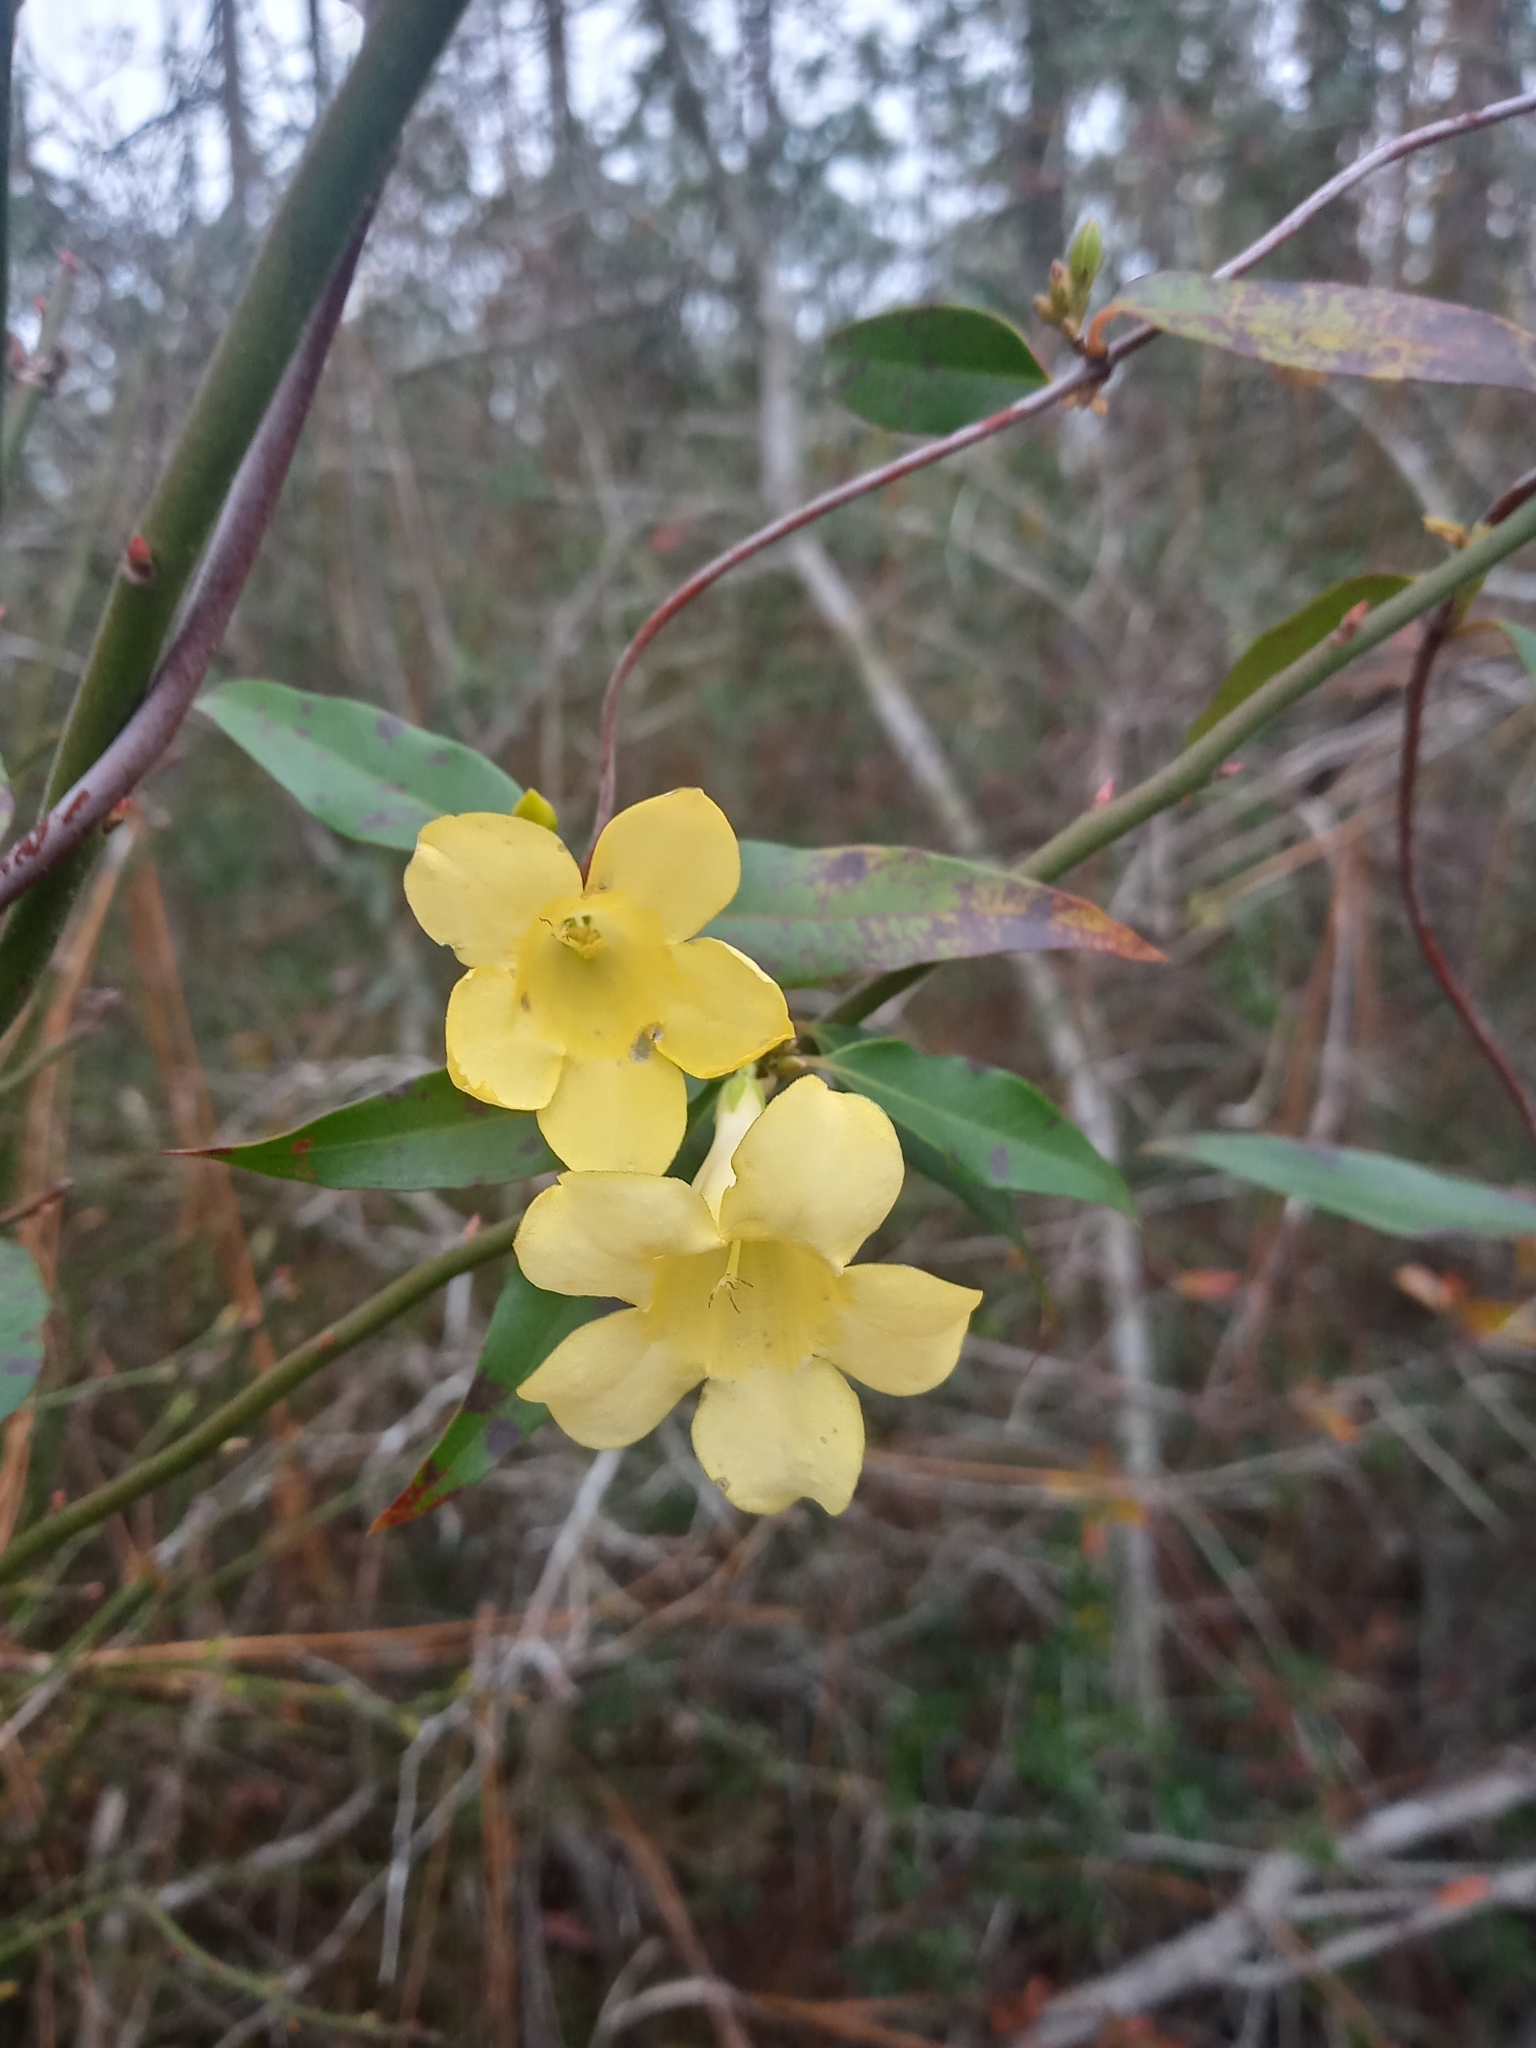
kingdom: Plantae
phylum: Tracheophyta
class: Magnoliopsida
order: Gentianales
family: Gelsemiaceae
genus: Gelsemium
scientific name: Gelsemium sempervirens
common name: Carolina-jasmine
